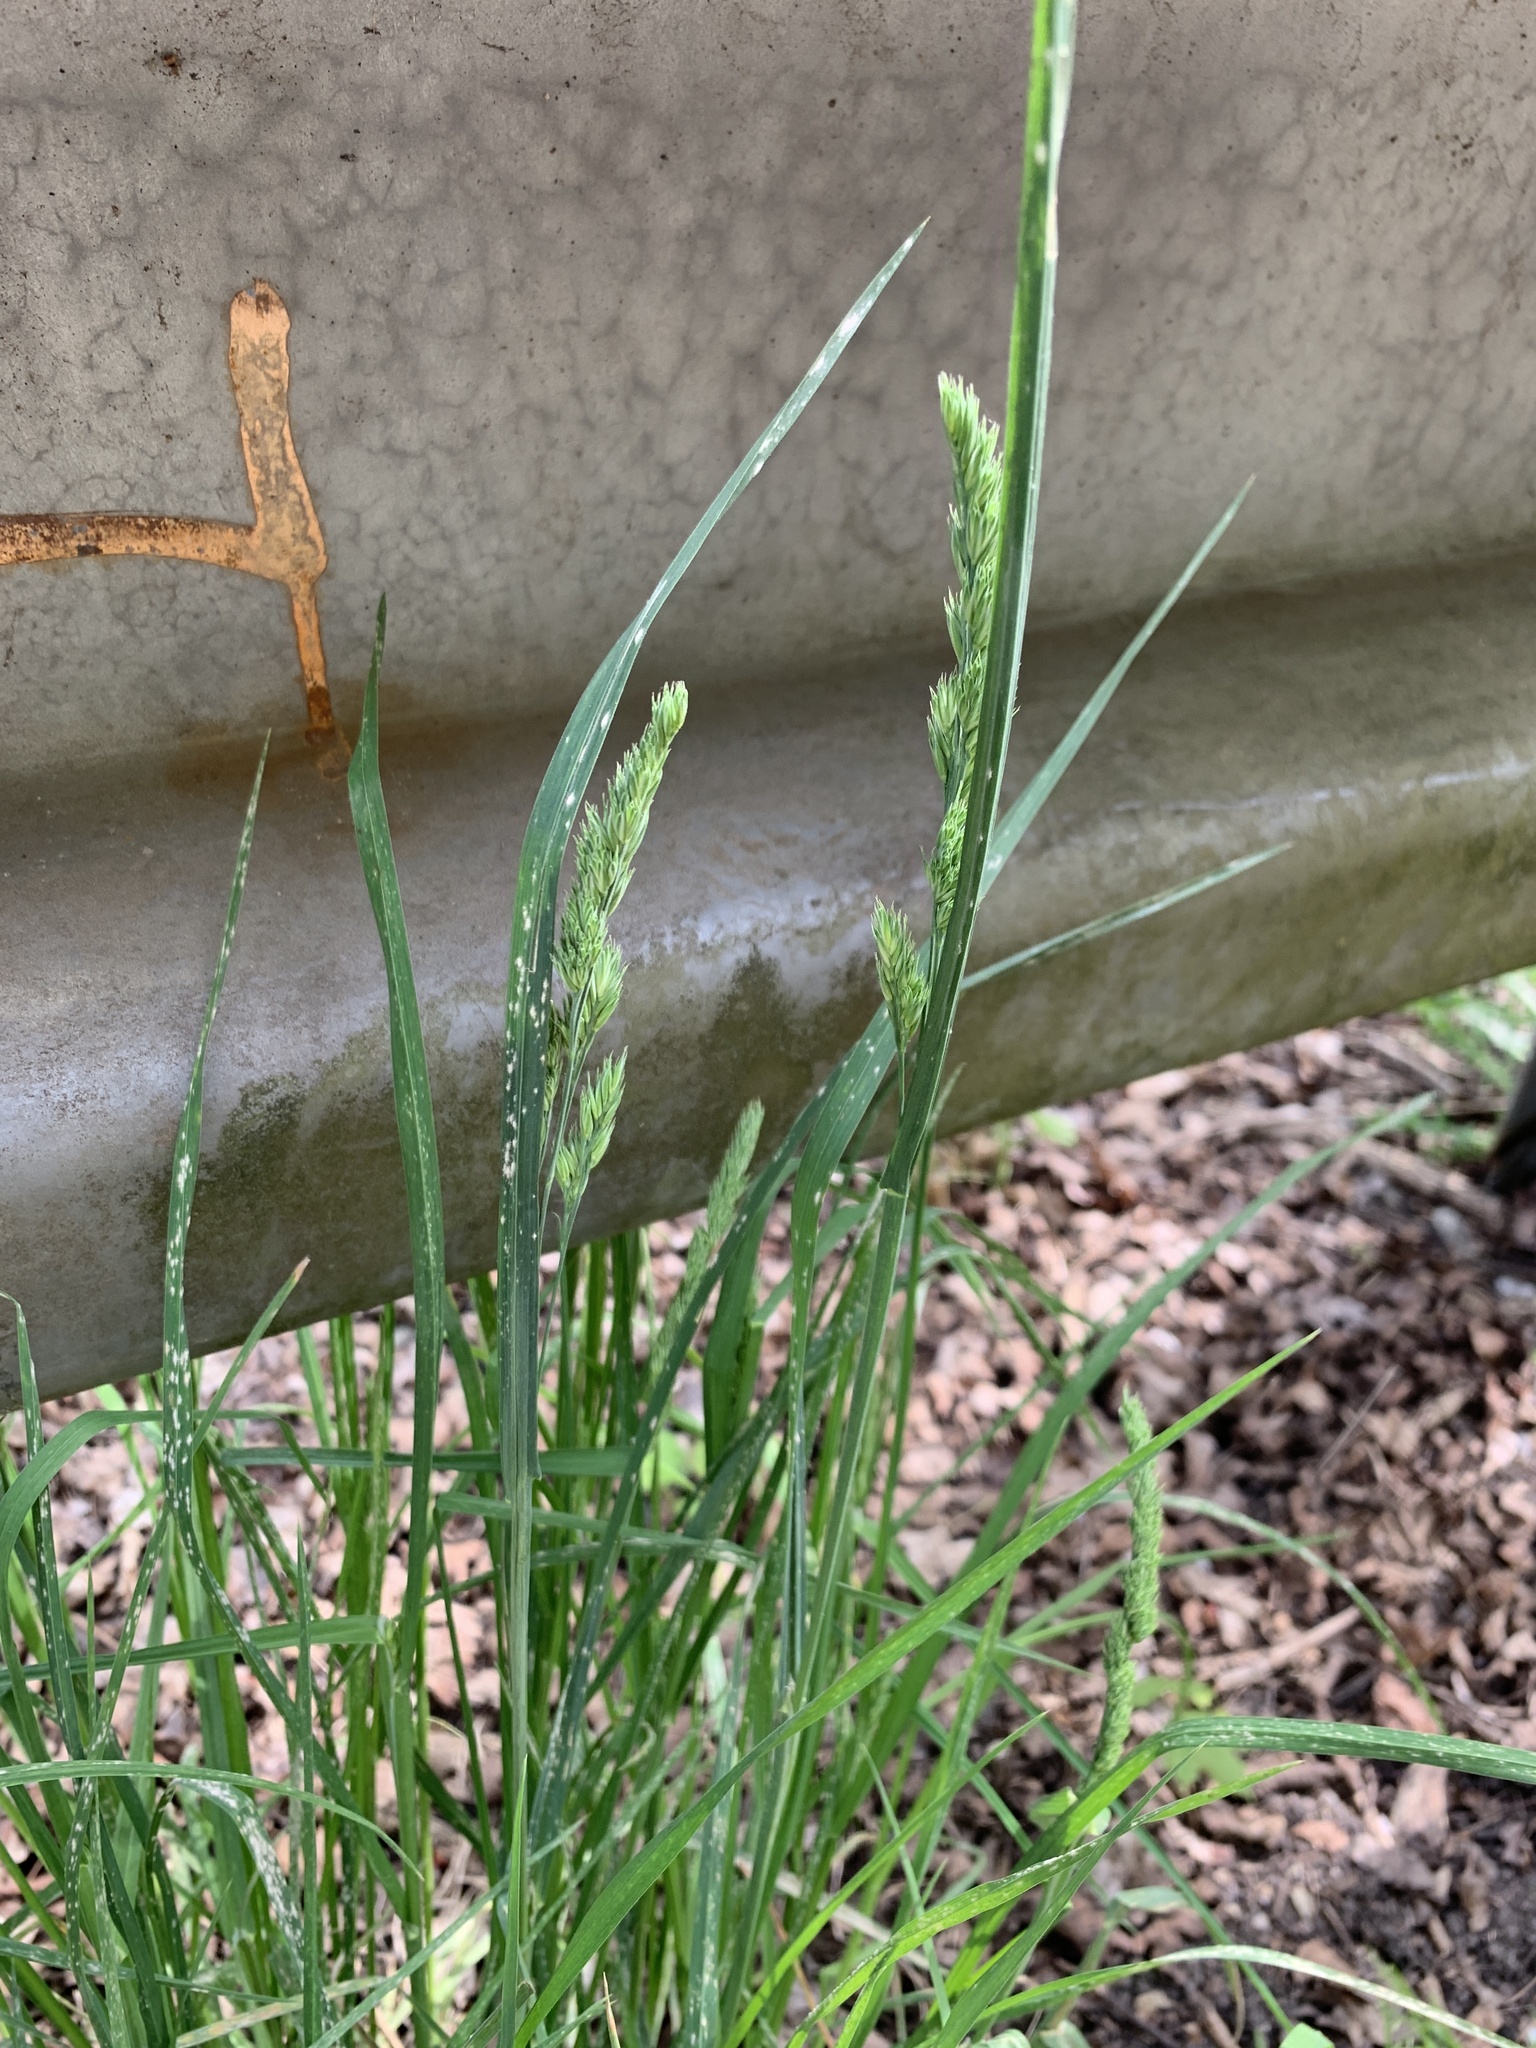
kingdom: Plantae
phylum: Tracheophyta
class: Liliopsida
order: Poales
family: Poaceae
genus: Dactylis
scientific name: Dactylis glomerata
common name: Orchardgrass
